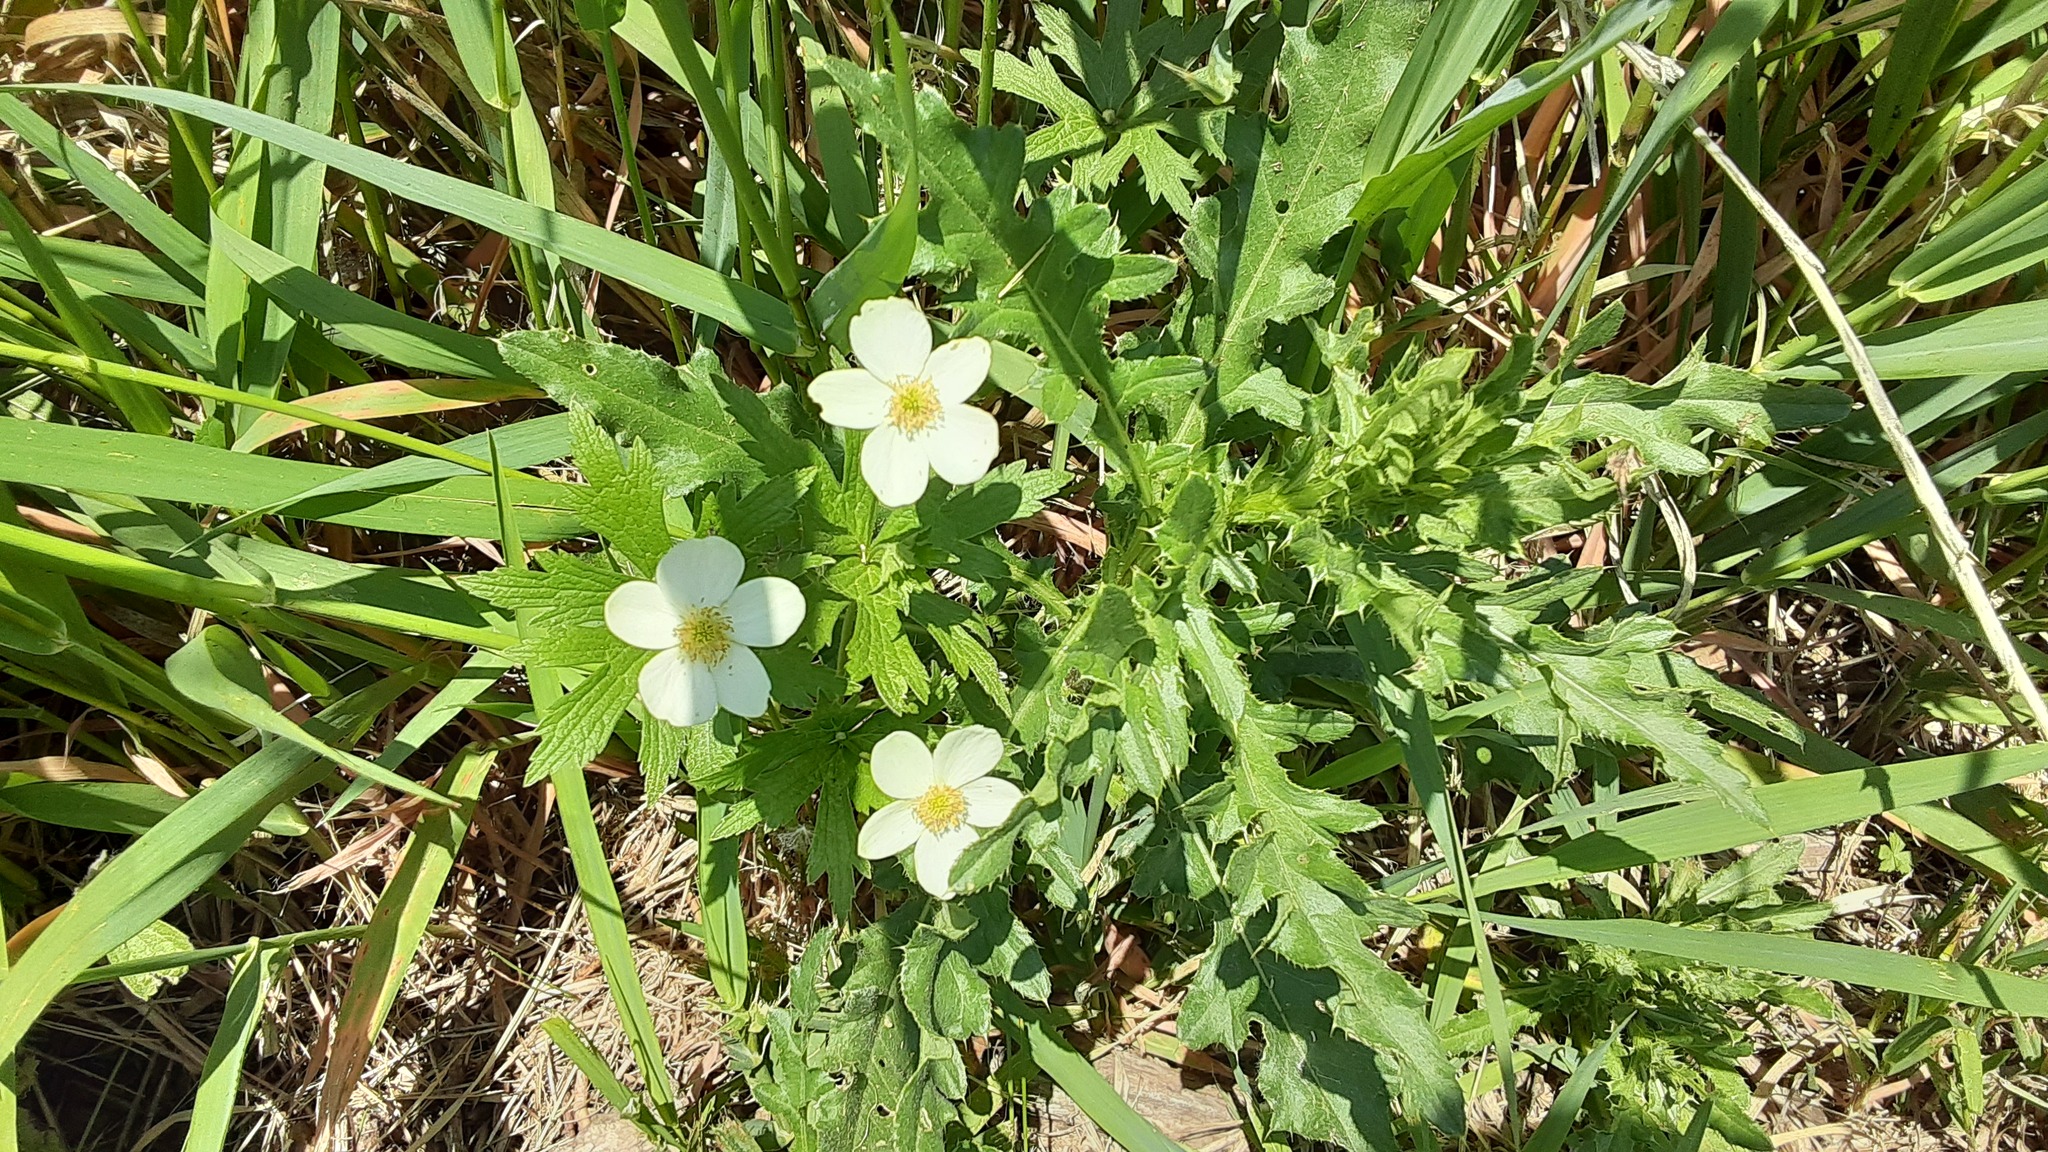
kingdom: Plantae
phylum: Tracheophyta
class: Magnoliopsida
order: Ranunculales
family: Ranunculaceae
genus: Anemonastrum
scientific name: Anemonastrum canadense
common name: Canada anemone
